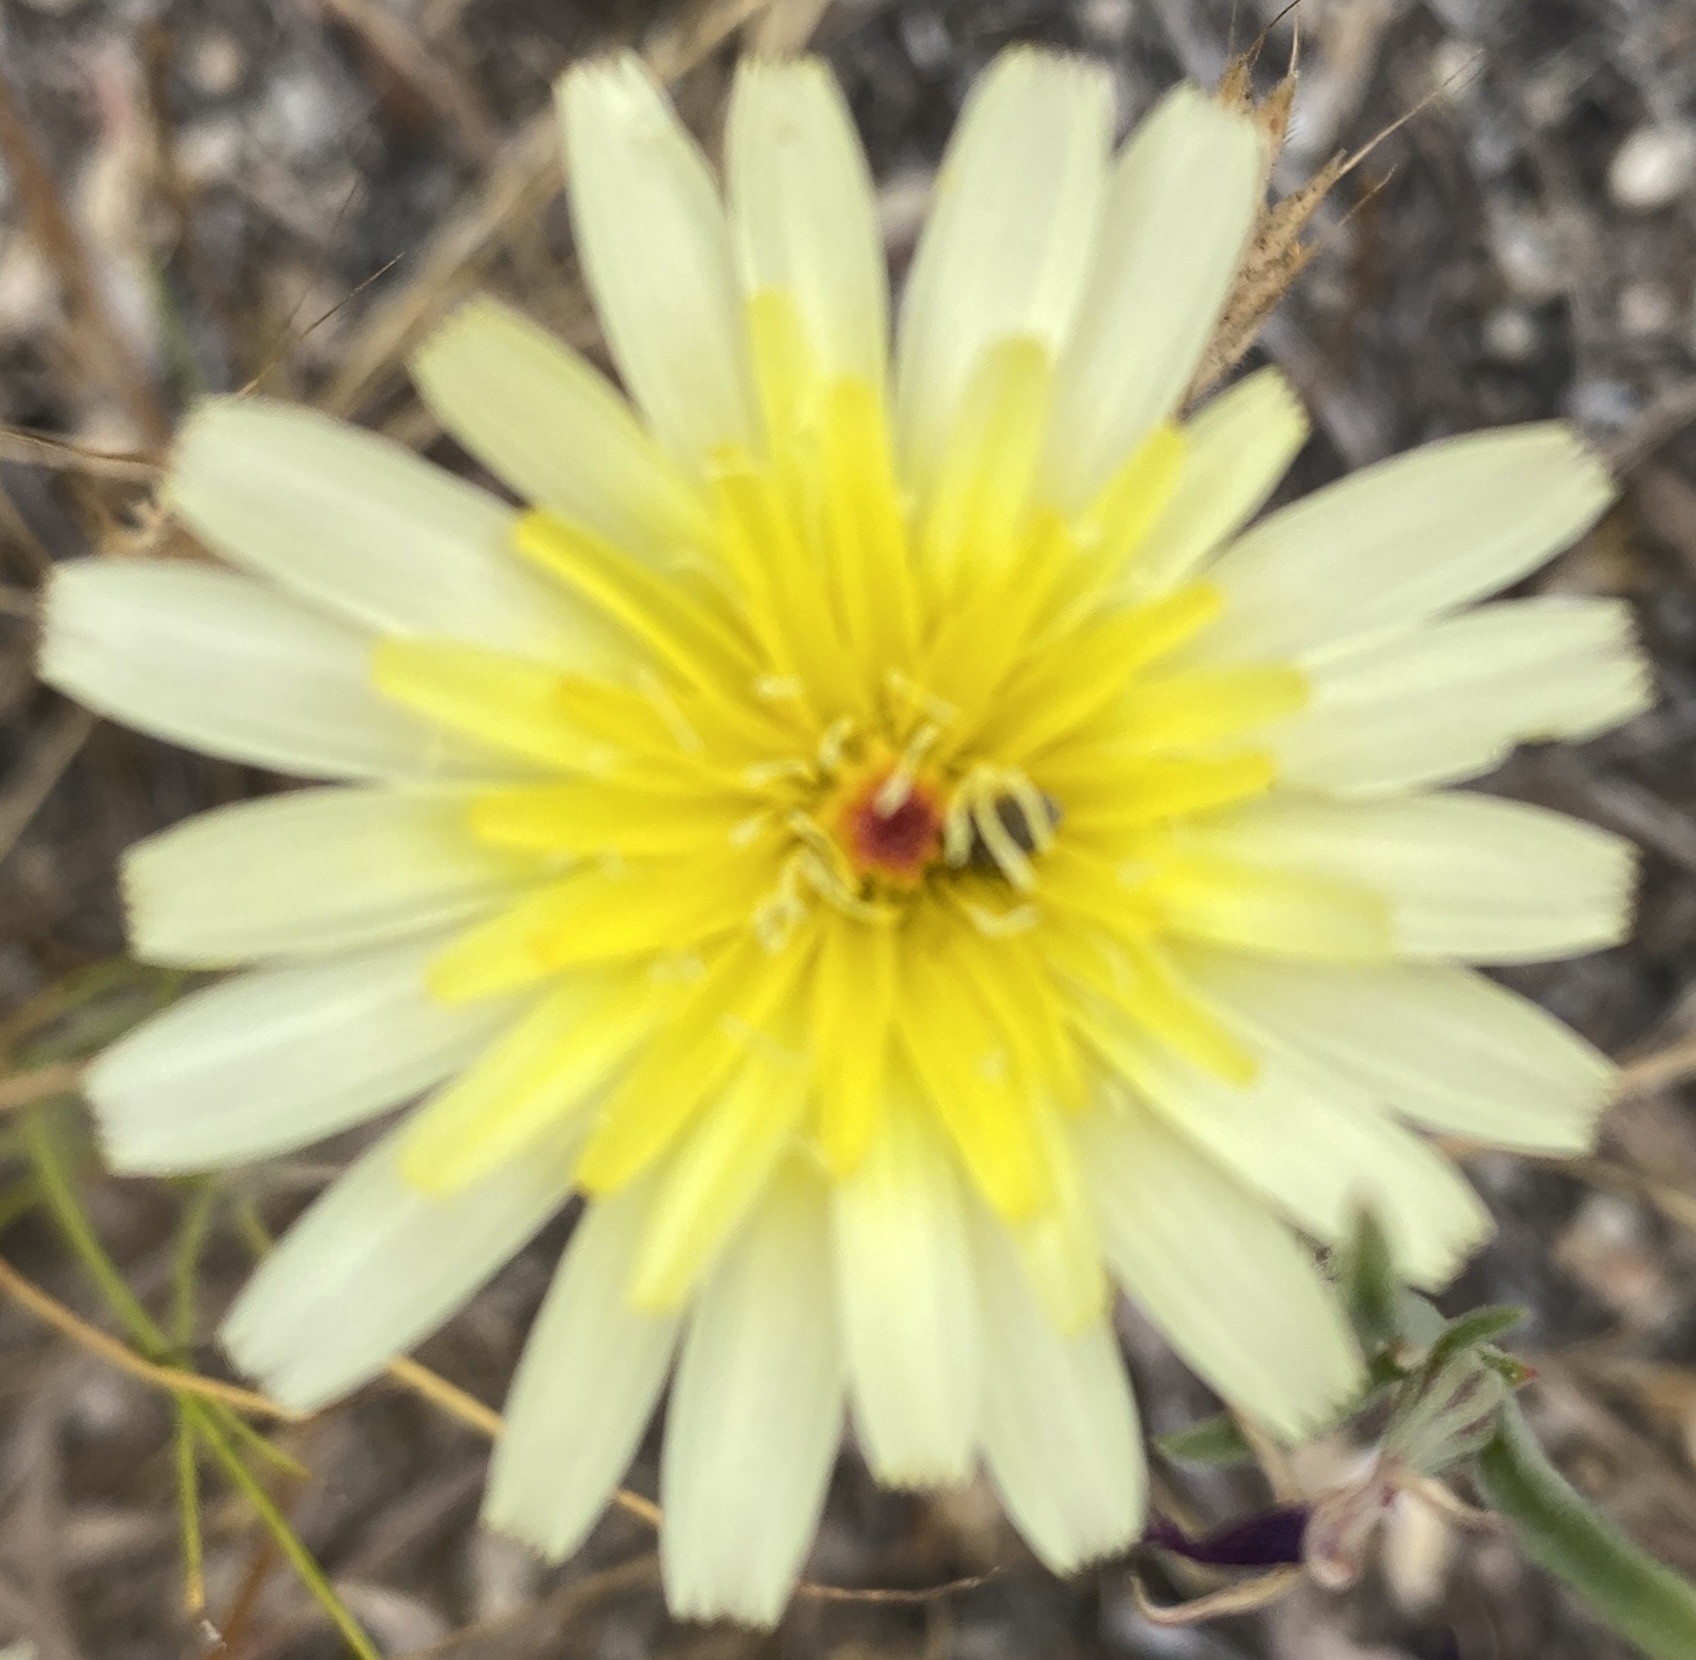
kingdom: Plantae
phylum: Tracheophyta
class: Magnoliopsida
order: Asterales
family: Asteraceae
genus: Malacothrix
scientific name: Malacothrix californica
